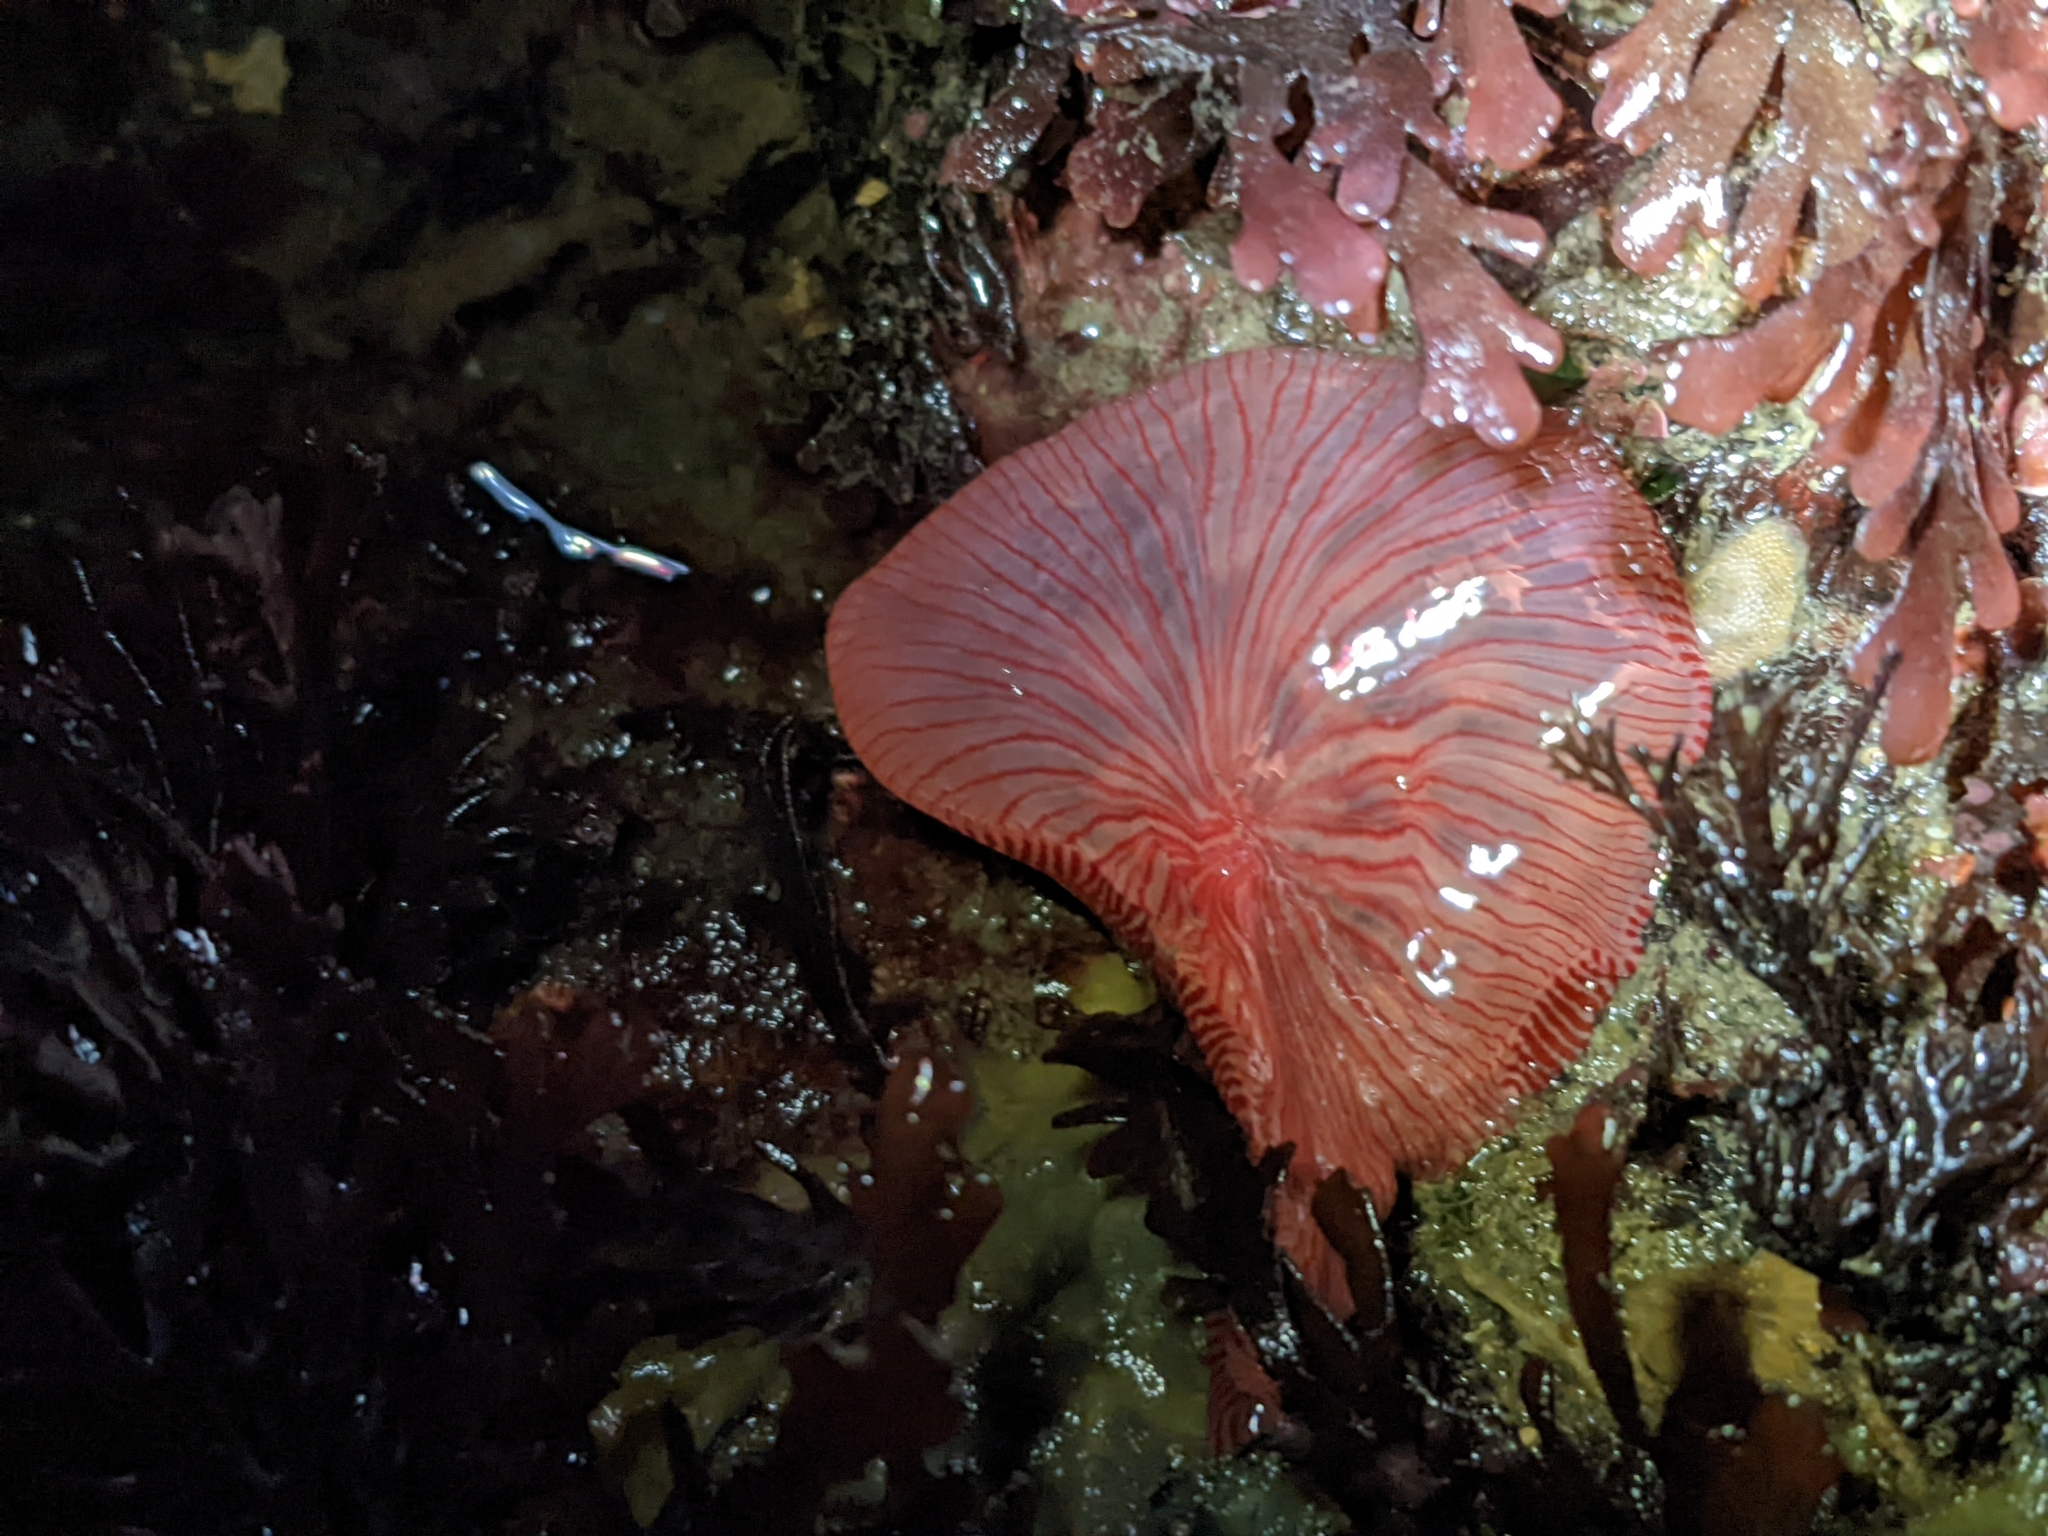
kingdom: Animalia
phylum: Cnidaria
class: Anthozoa
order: Actiniaria
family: Actiniidae
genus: Urticina
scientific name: Urticina clandestina
